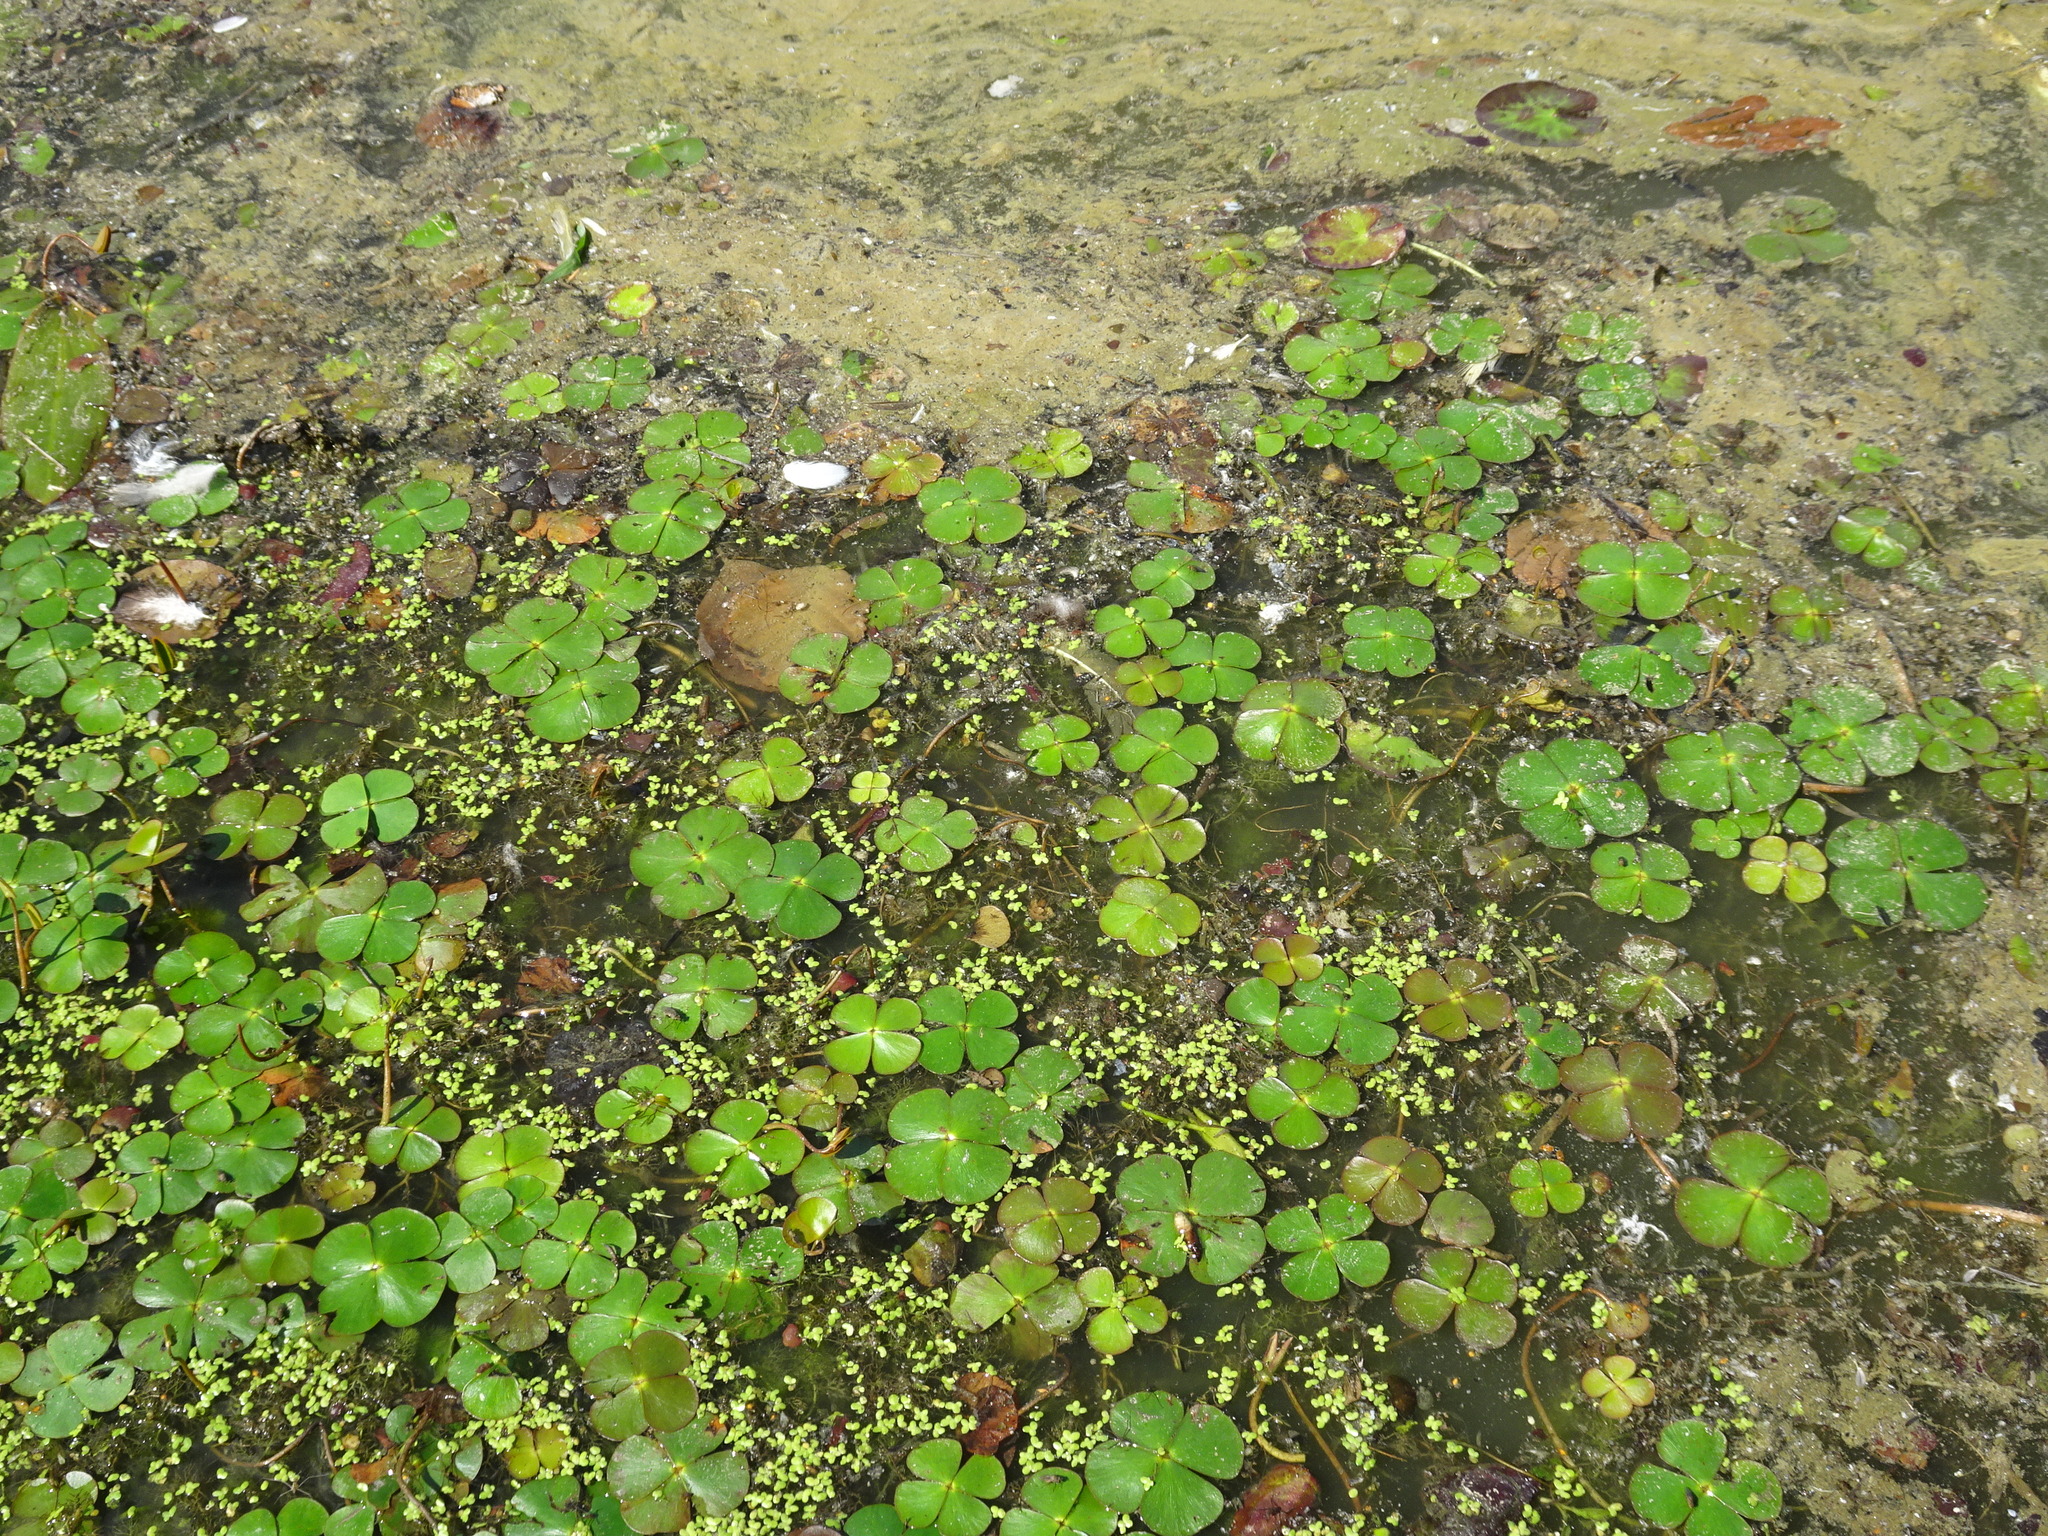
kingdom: Plantae
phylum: Tracheophyta
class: Polypodiopsida
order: Salviniales
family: Marsileaceae
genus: Marsilea
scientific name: Marsilea quadrifolia
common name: Water shamrock
